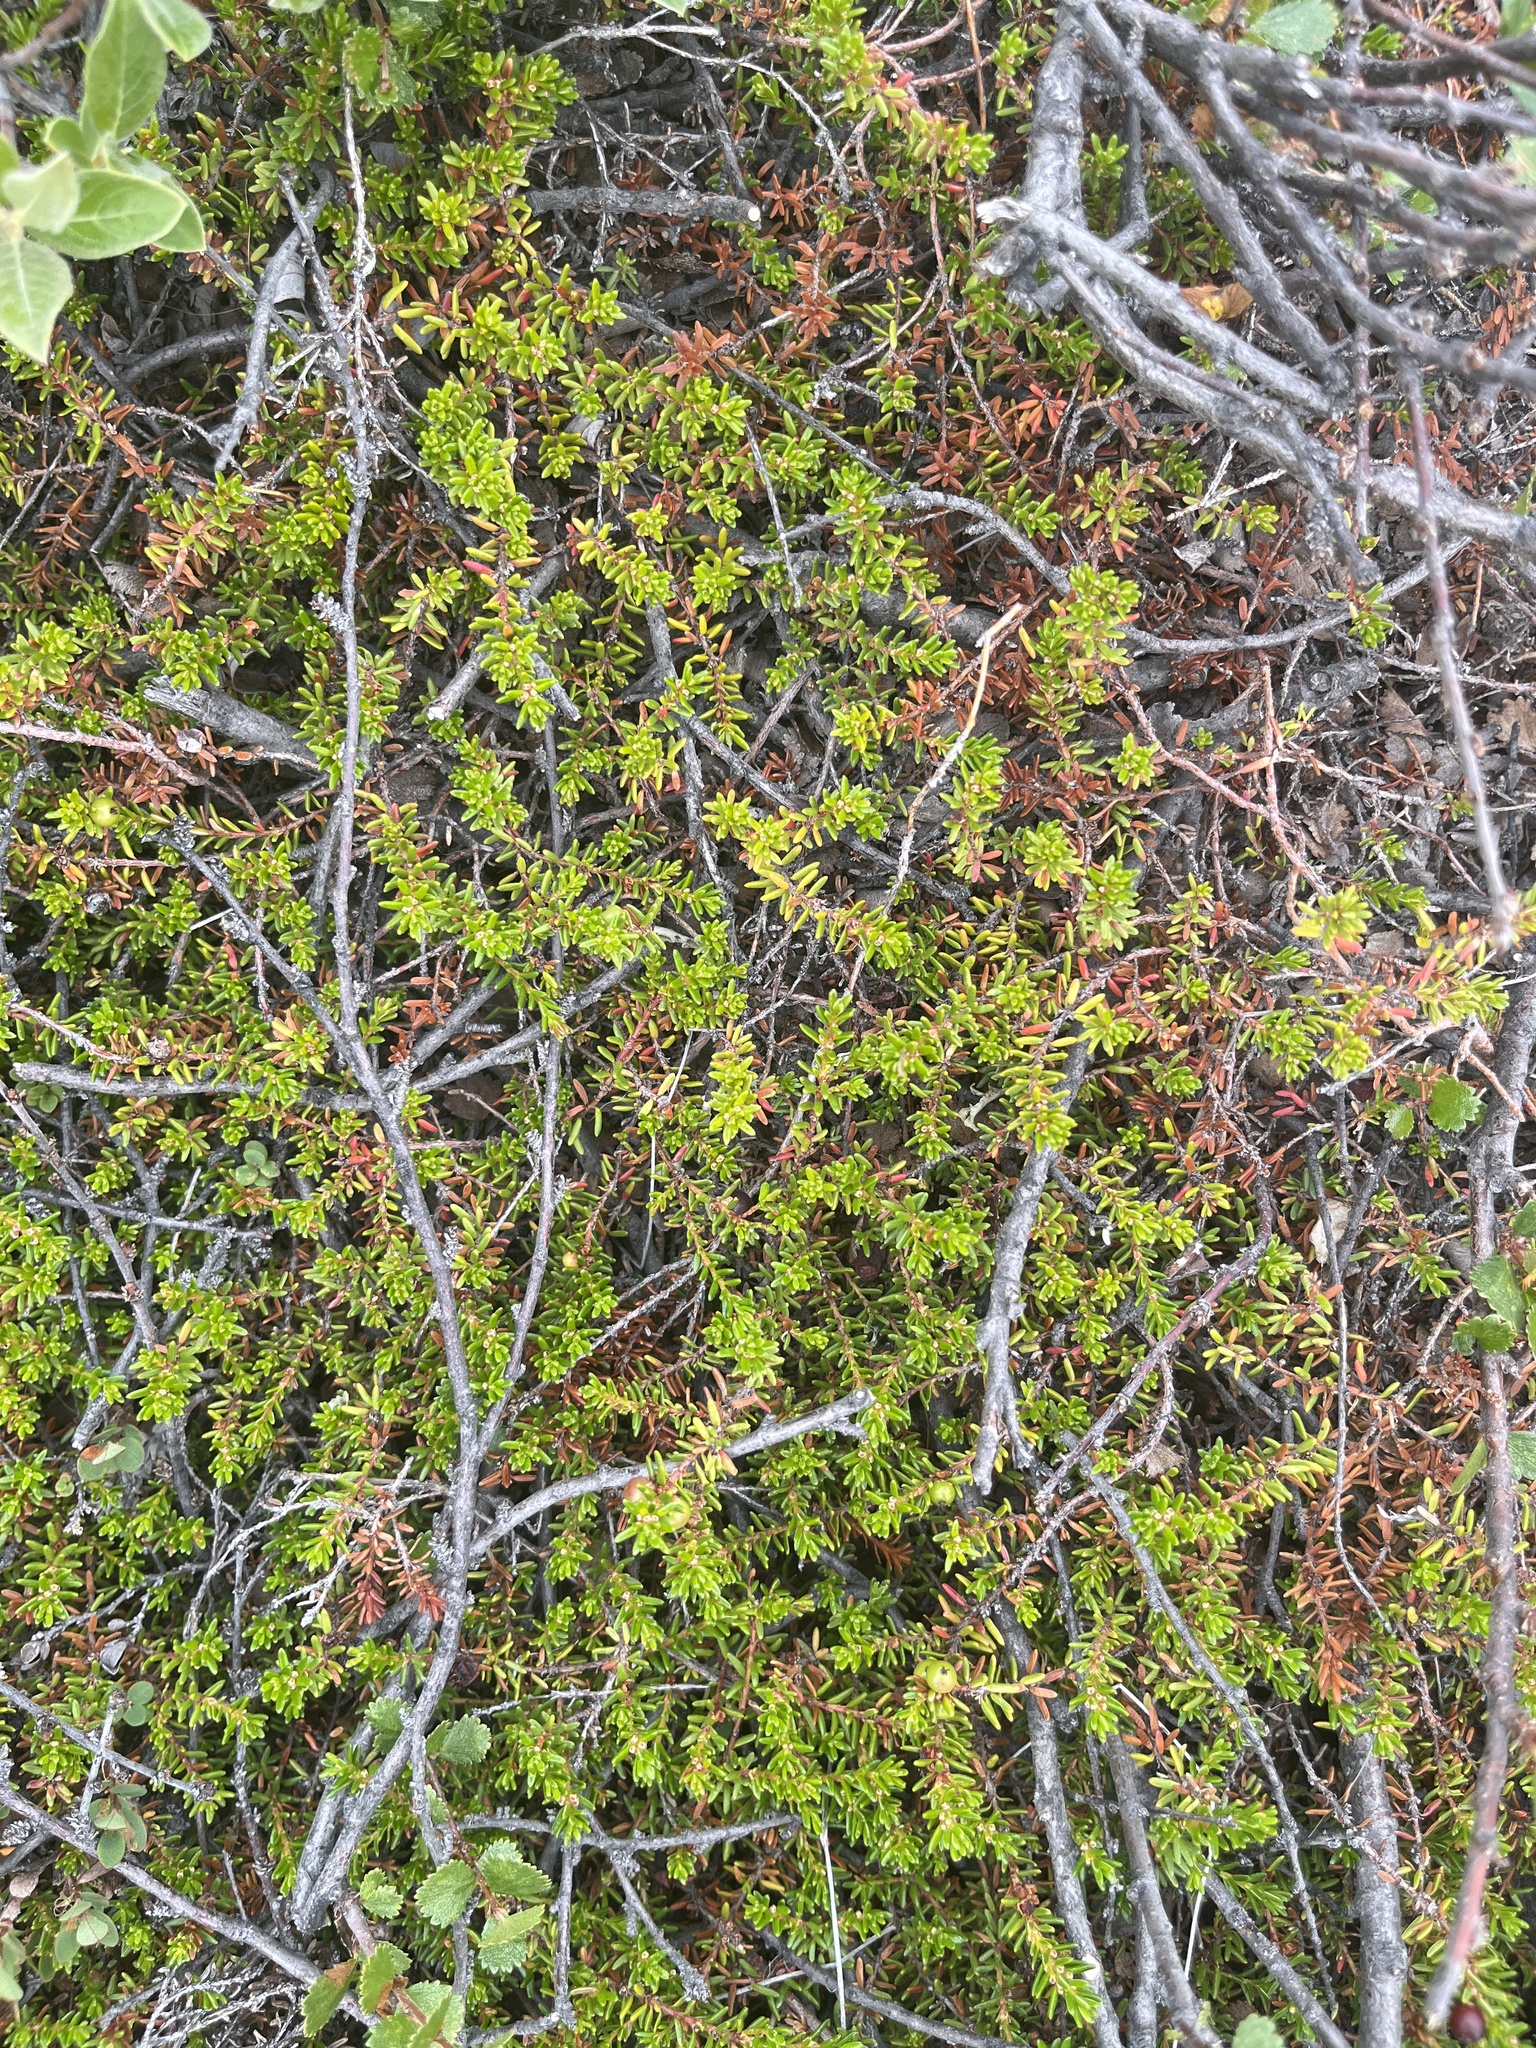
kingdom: Plantae
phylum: Tracheophyta
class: Magnoliopsida
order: Ericales
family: Ericaceae
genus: Empetrum
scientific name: Empetrum hermaphroditum
